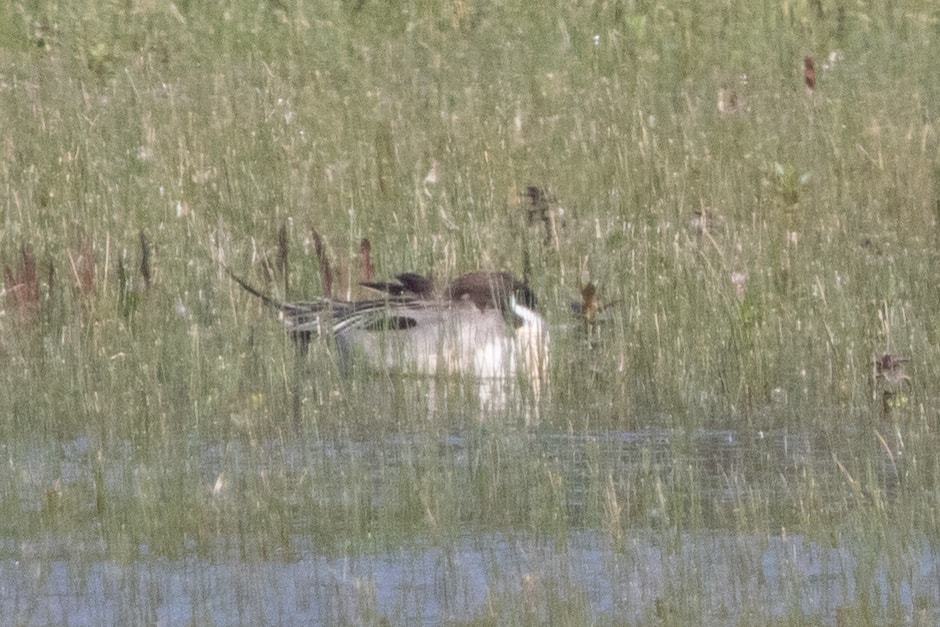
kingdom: Animalia
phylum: Chordata
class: Aves
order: Anseriformes
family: Anatidae
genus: Anas
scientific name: Anas acuta
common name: Northern pintail
